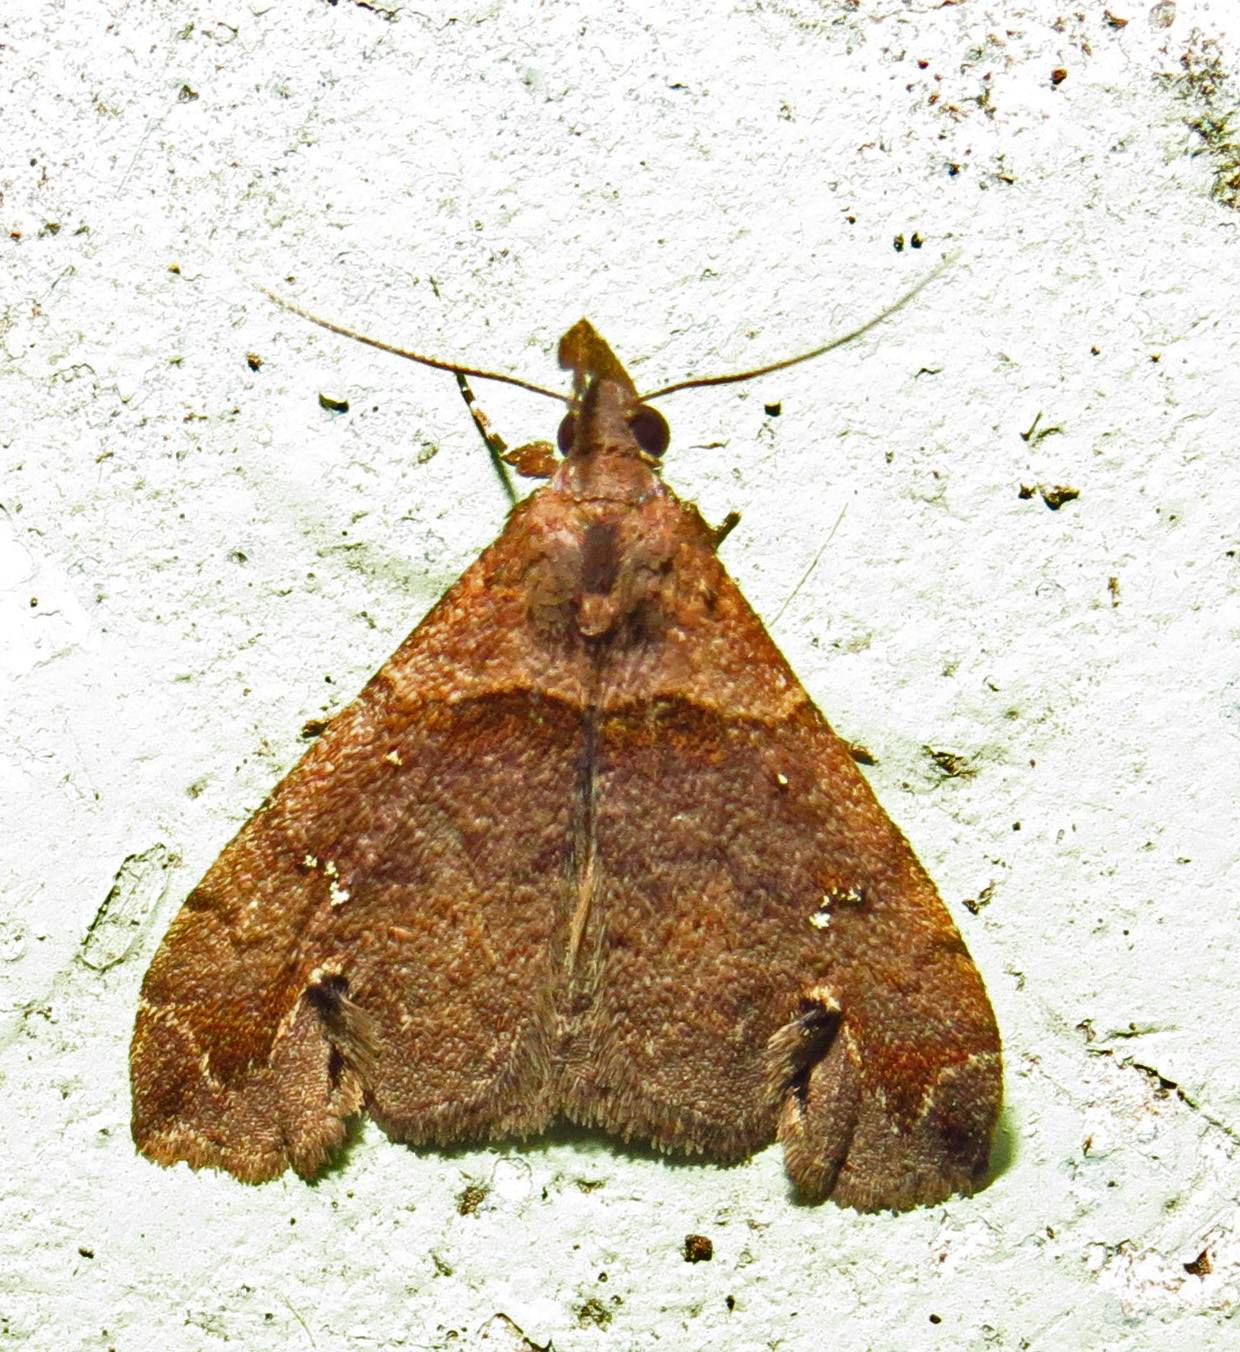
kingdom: Animalia
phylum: Arthropoda
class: Insecta
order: Lepidoptera
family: Erebidae
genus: Lascoria
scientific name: Lascoria ambigualis
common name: Ambiguous moth
